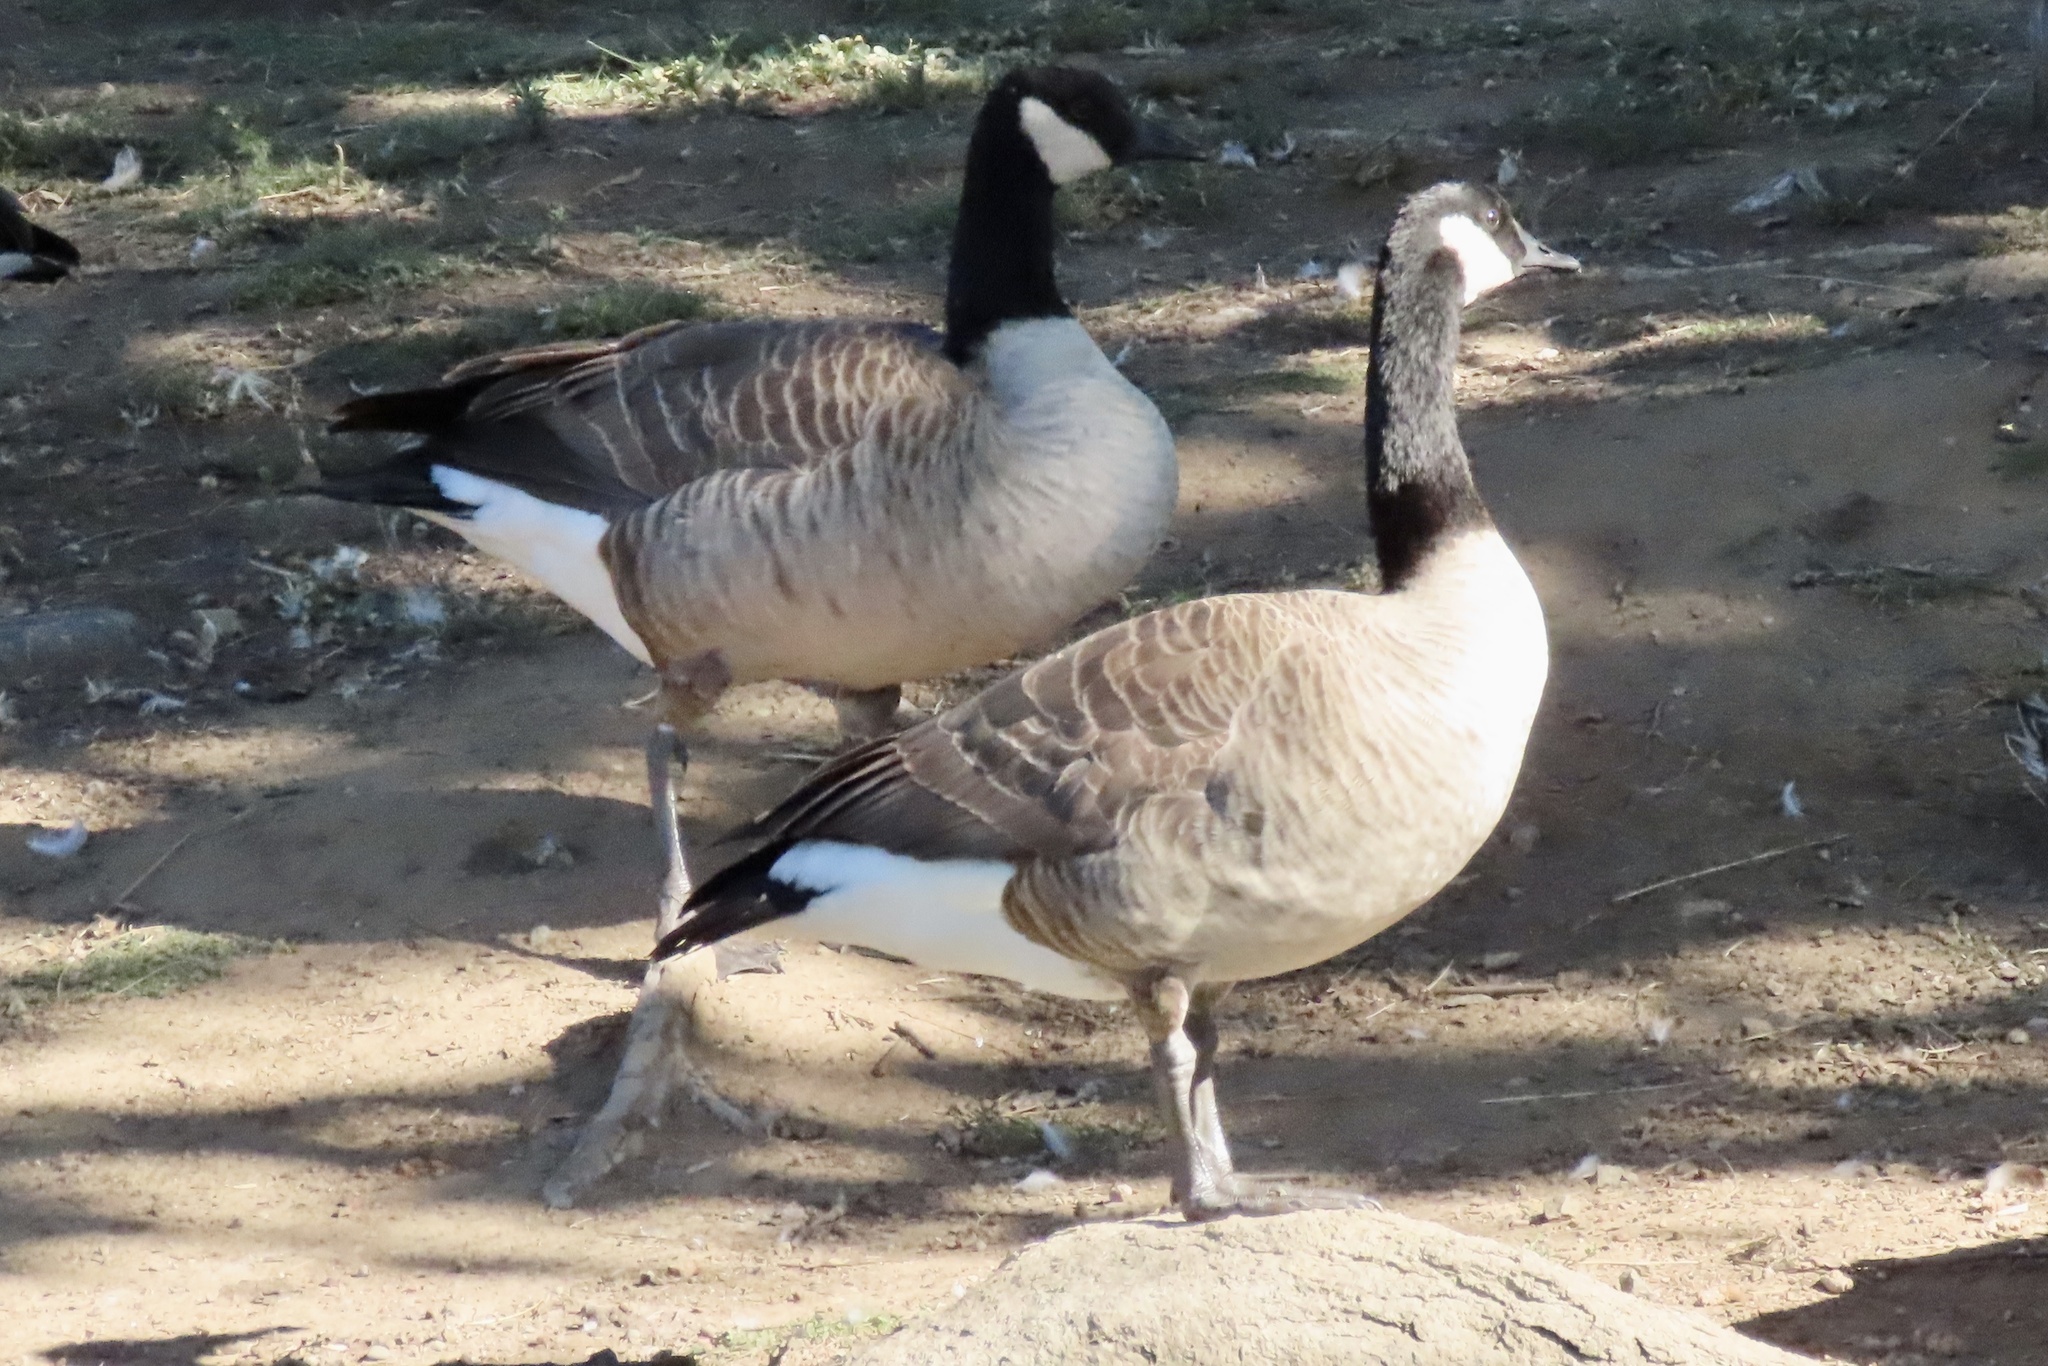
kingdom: Animalia
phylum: Chordata
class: Aves
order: Anseriformes
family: Anatidae
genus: Branta
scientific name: Branta canadensis
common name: Canada goose
